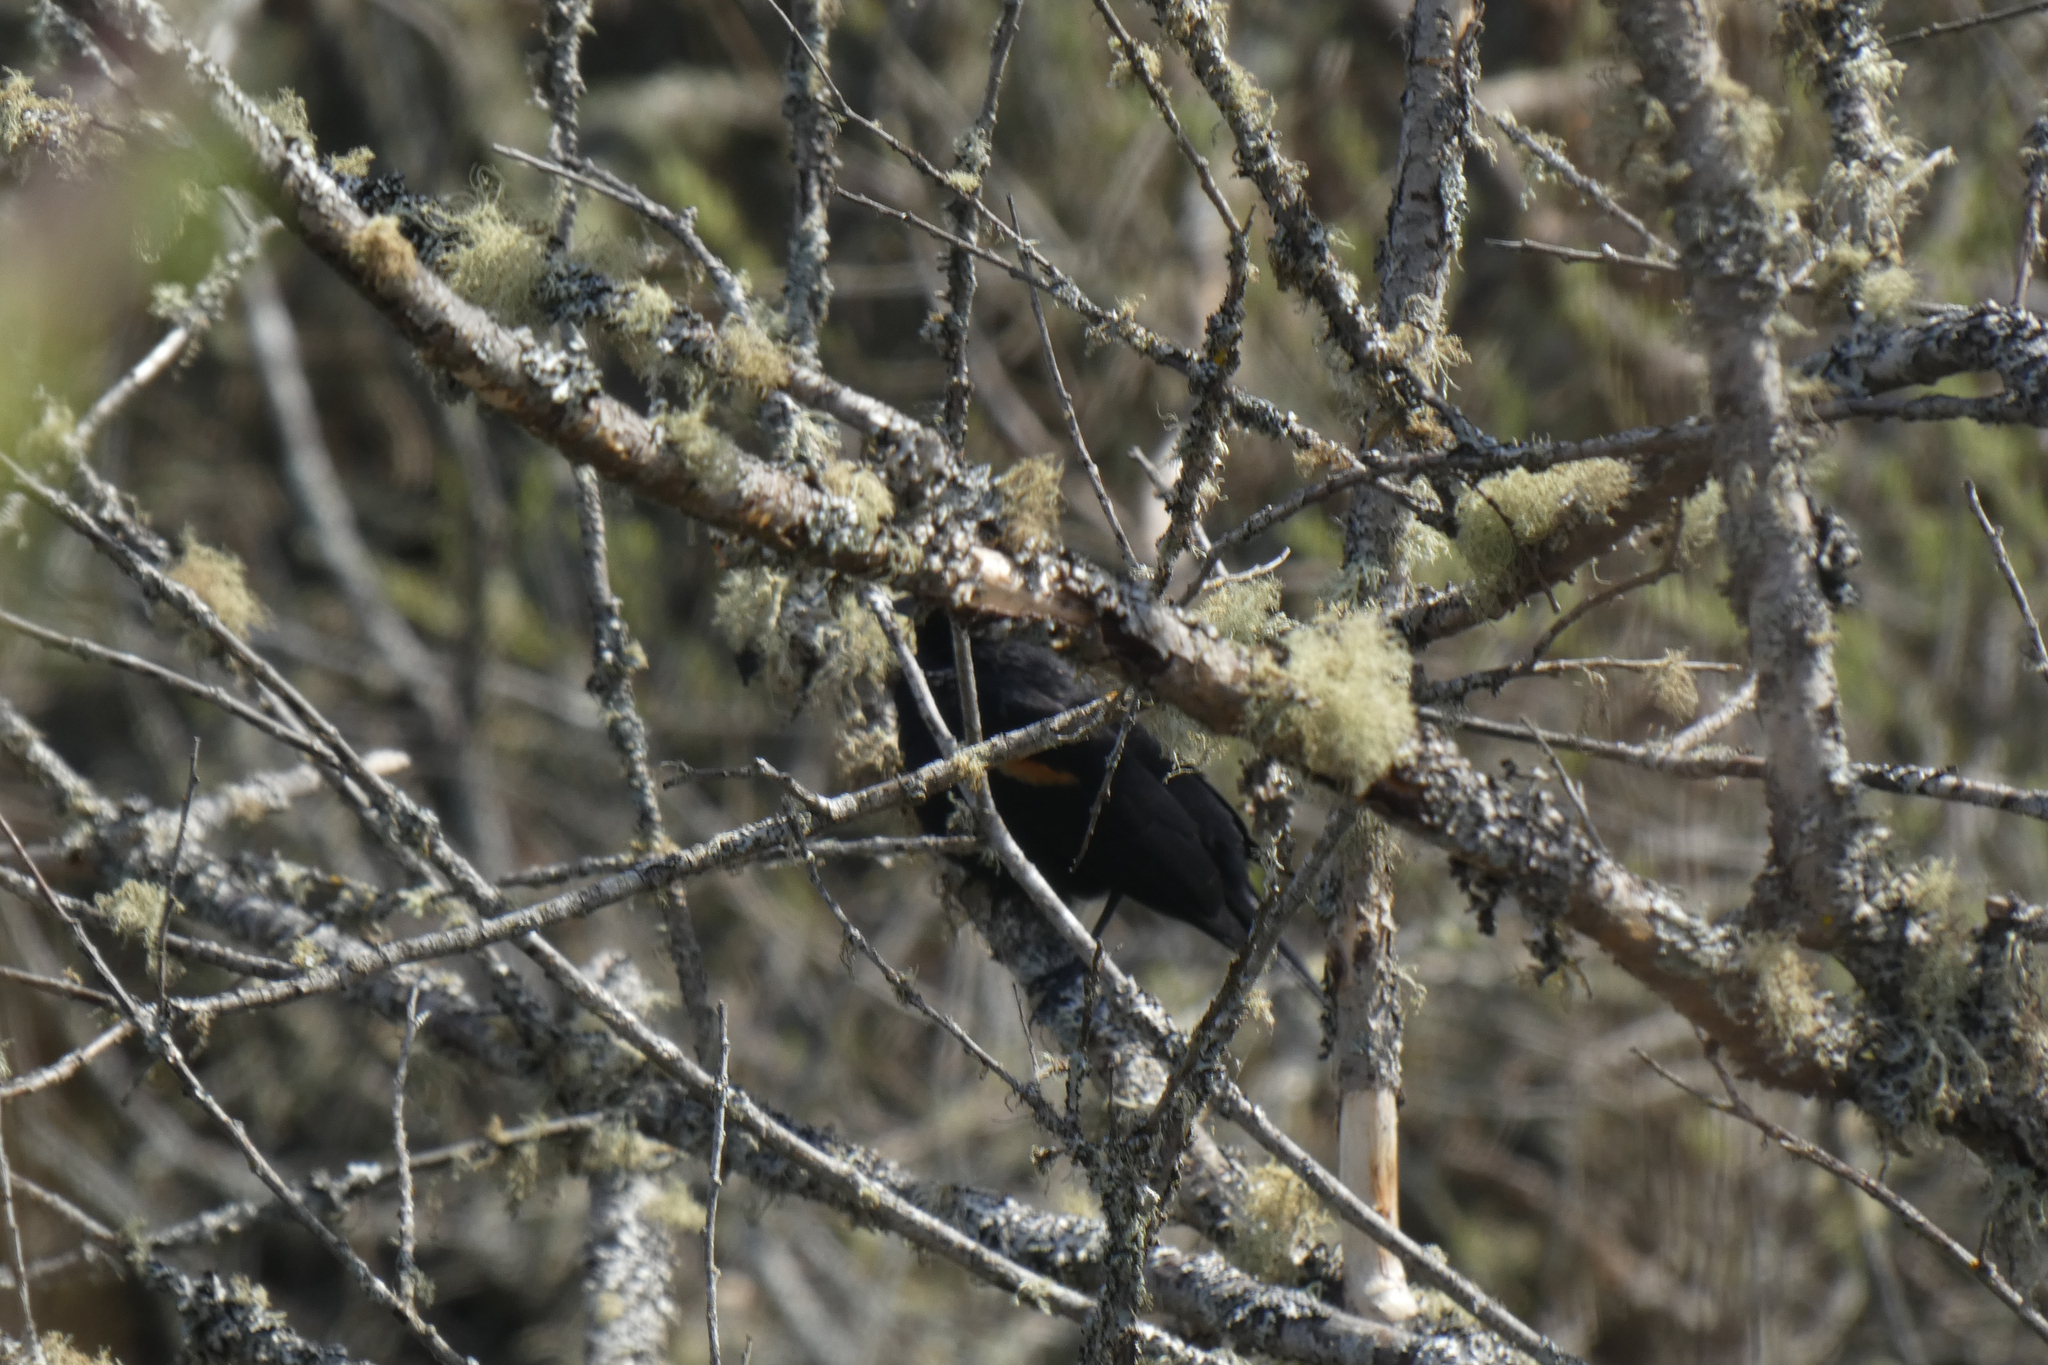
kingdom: Animalia
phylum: Chordata
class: Aves
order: Passeriformes
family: Icteridae
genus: Agelaius
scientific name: Agelaius phoeniceus
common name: Red-winged blackbird
